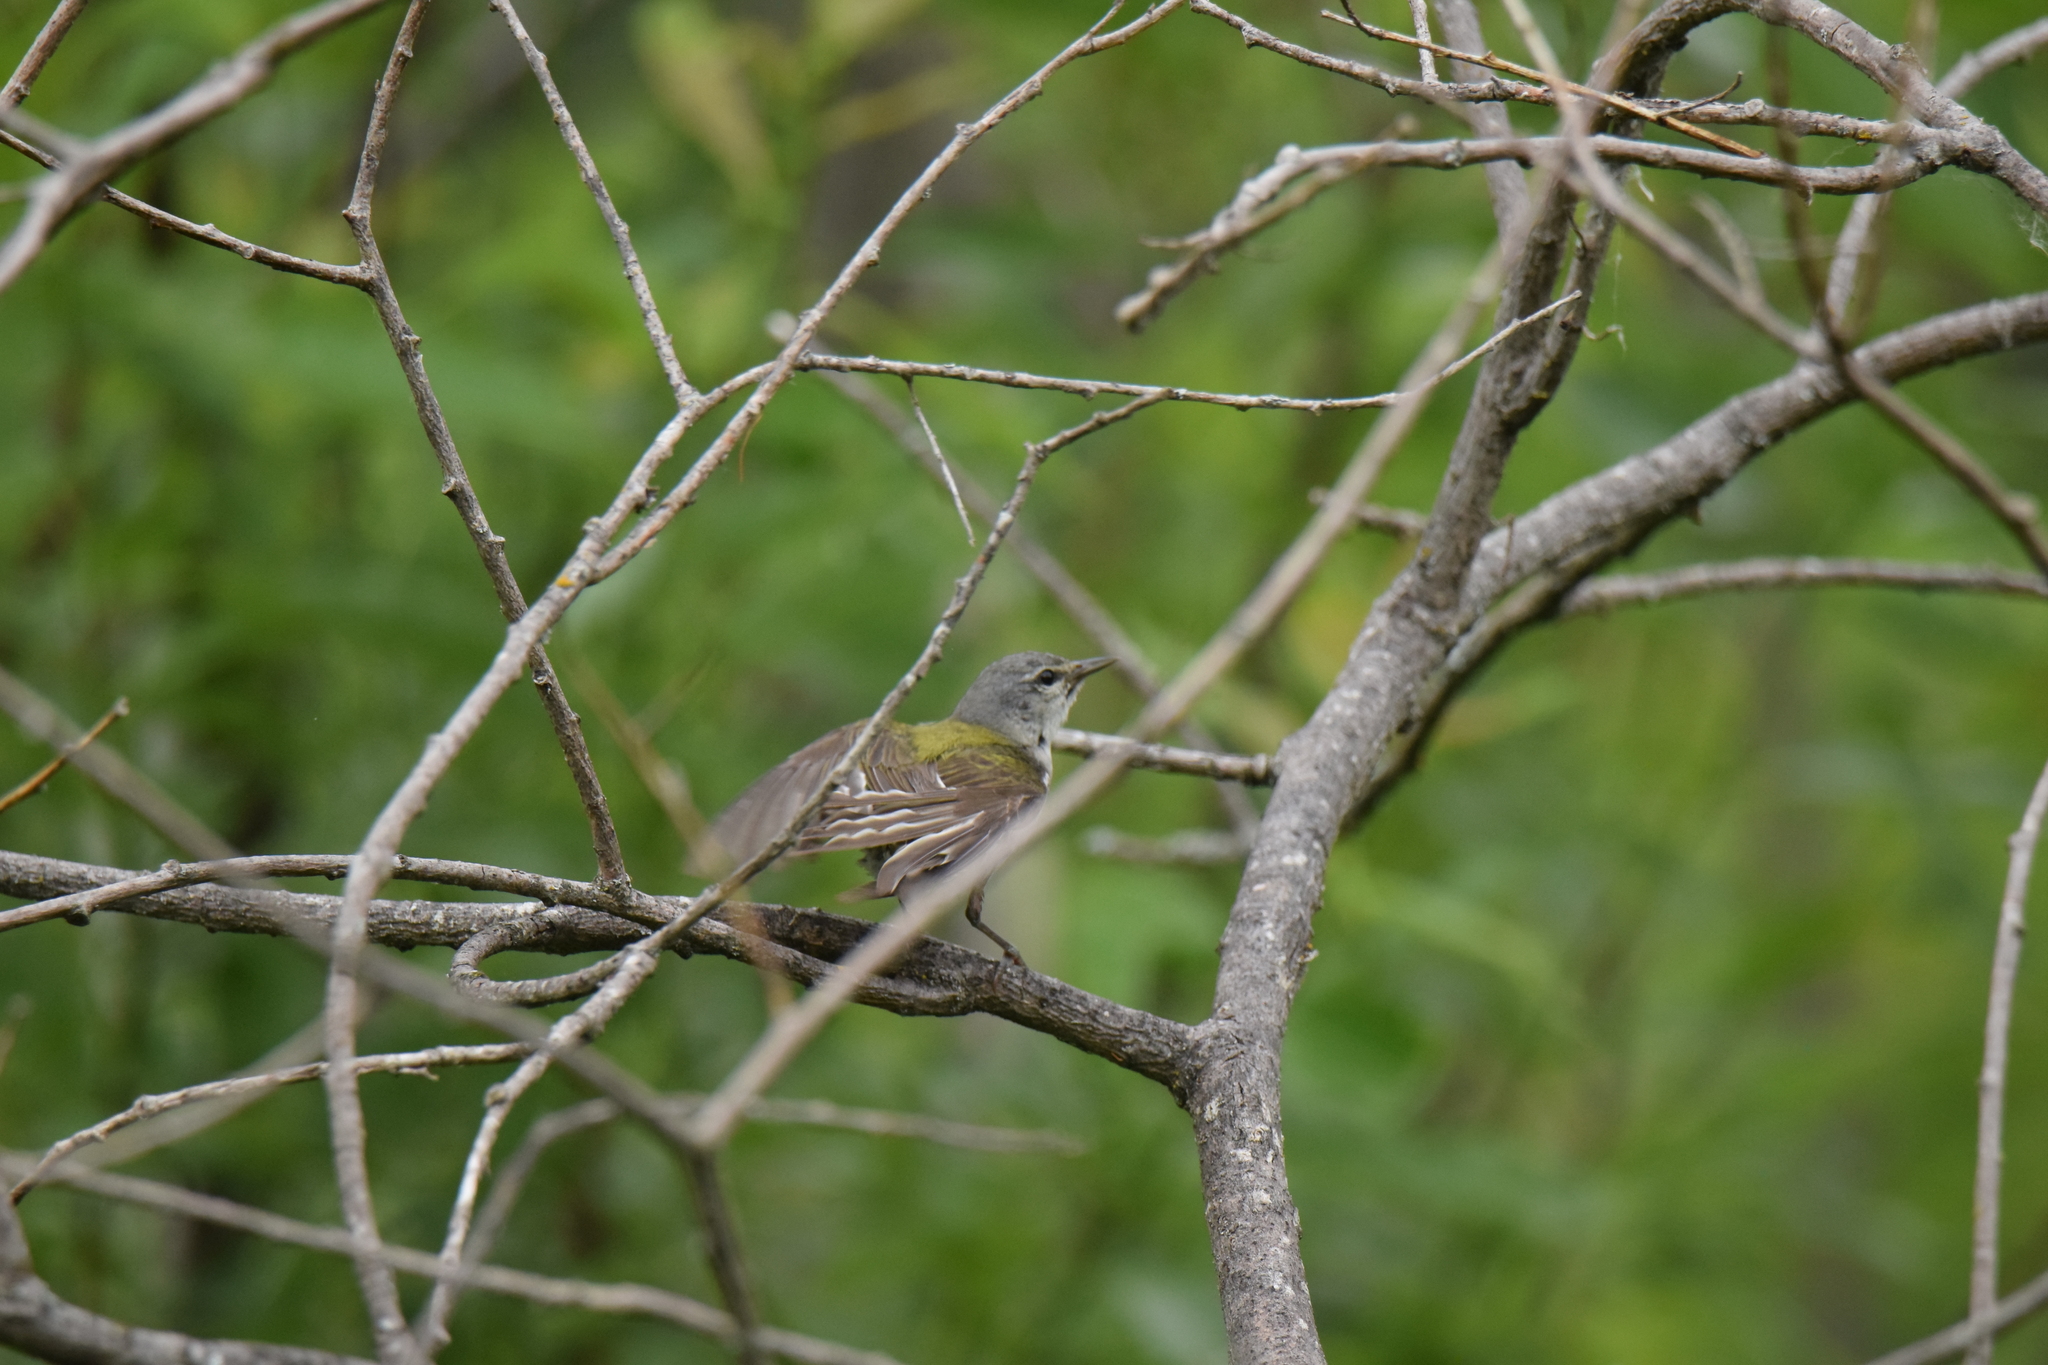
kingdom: Animalia
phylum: Chordata
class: Aves
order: Passeriformes
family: Parulidae
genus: Leiothlypis
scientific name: Leiothlypis peregrina
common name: Tennessee warbler
